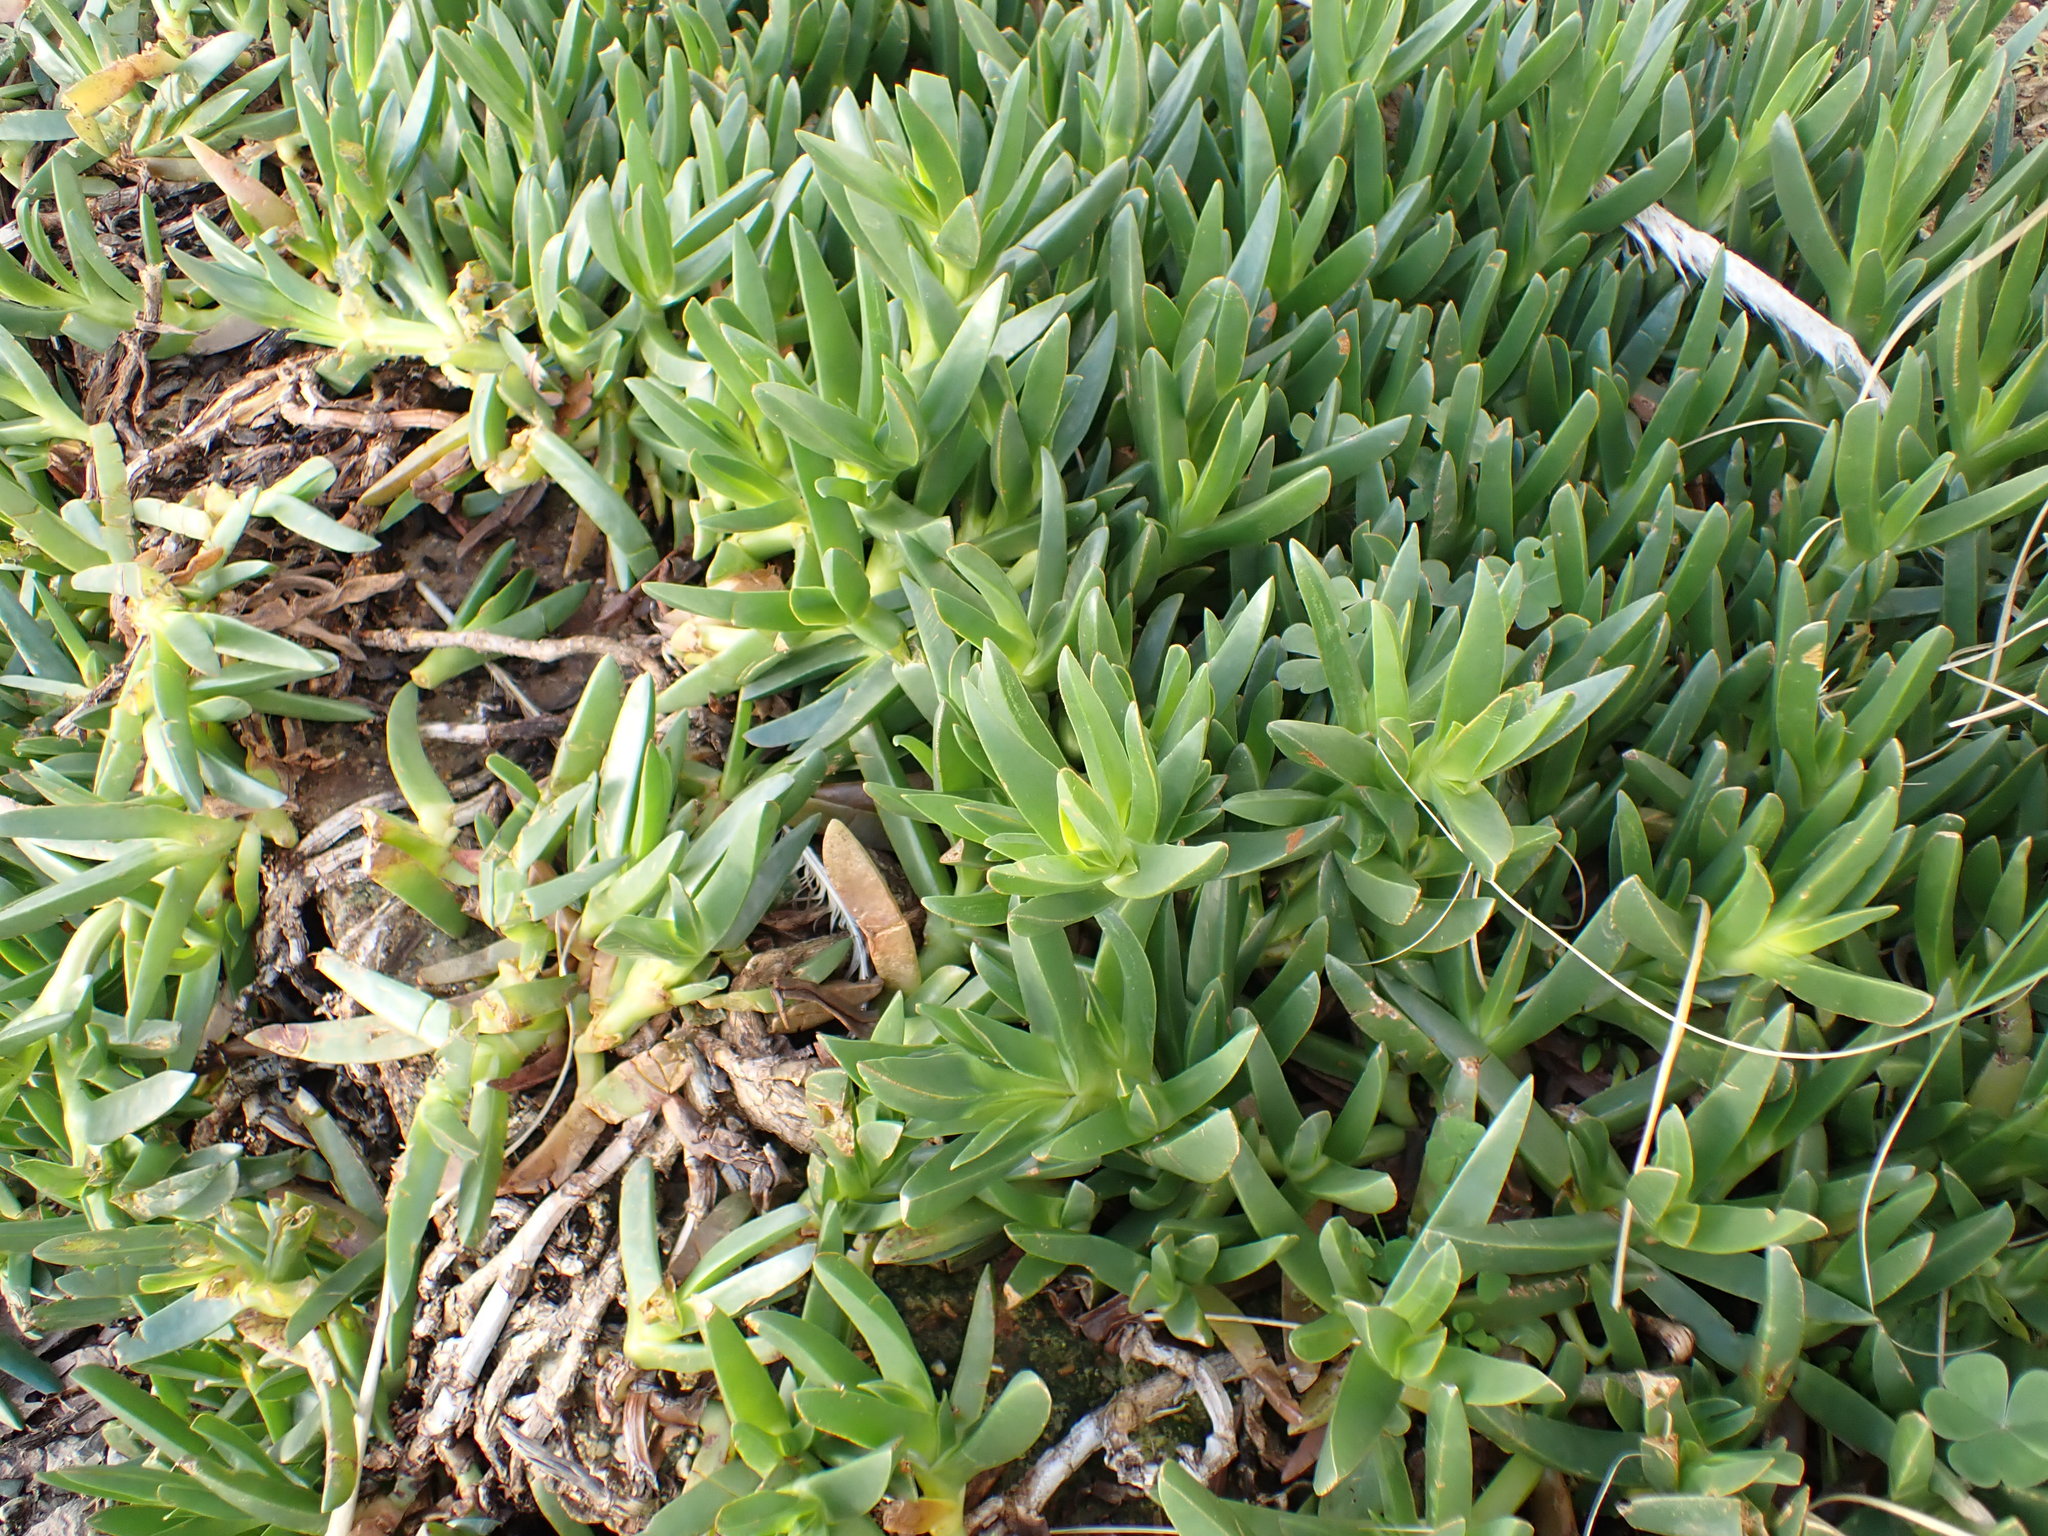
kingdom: Plantae
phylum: Tracheophyta
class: Magnoliopsida
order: Caryophyllales
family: Aizoaceae
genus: Carpobrotus
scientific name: Carpobrotus edulis
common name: Hottentot-fig
